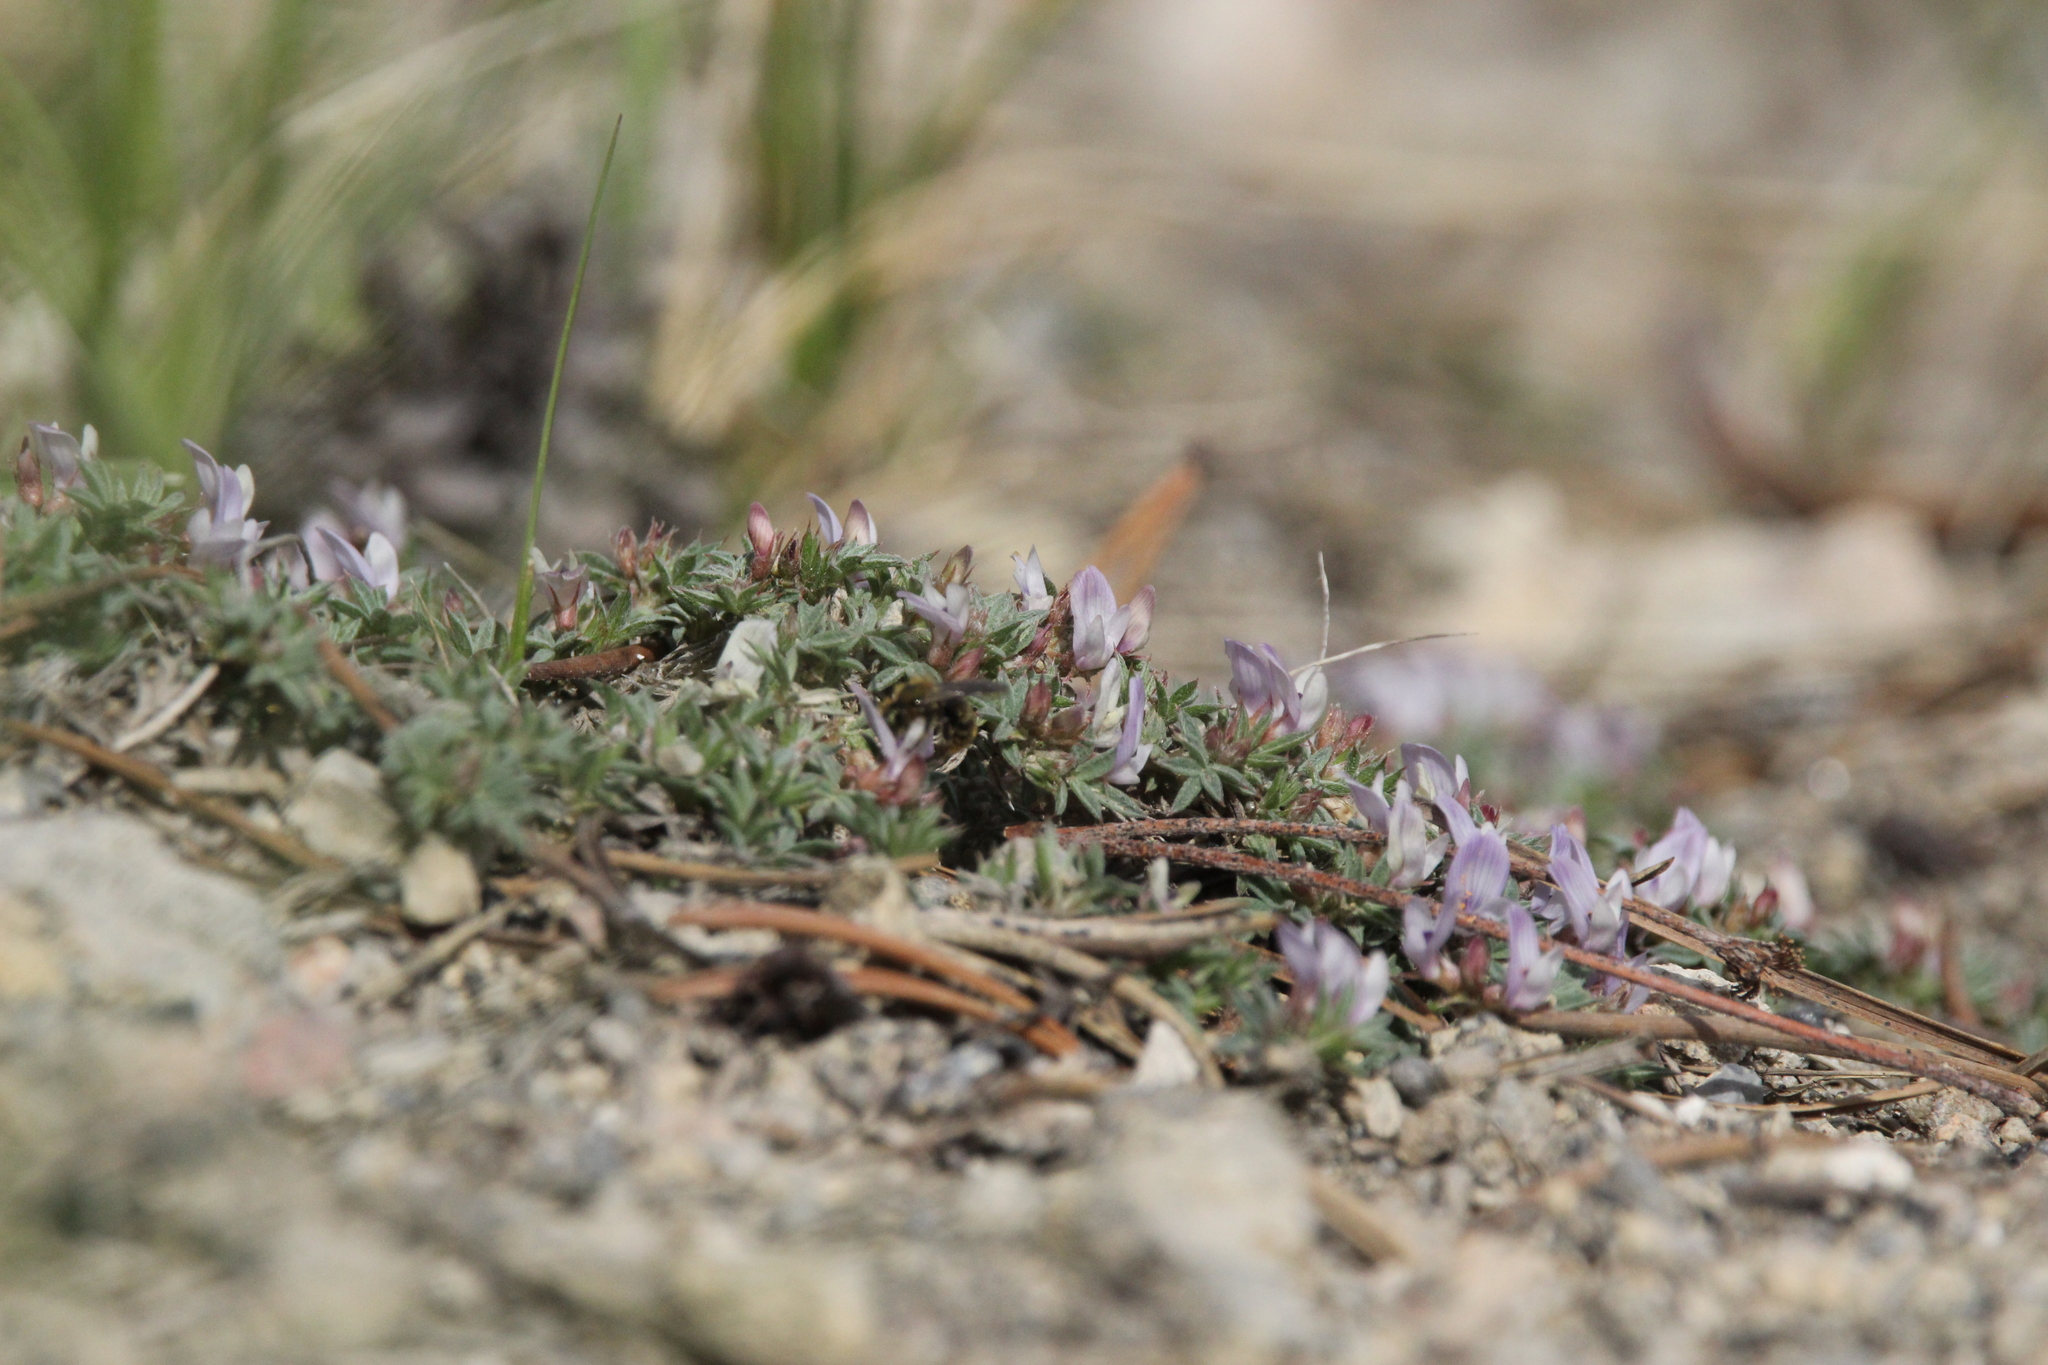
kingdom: Plantae
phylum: Tracheophyta
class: Magnoliopsida
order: Fabales
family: Fabaceae
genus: Astragalus
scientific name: Astragalus kentrophyta
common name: Prickly milk-vetch
